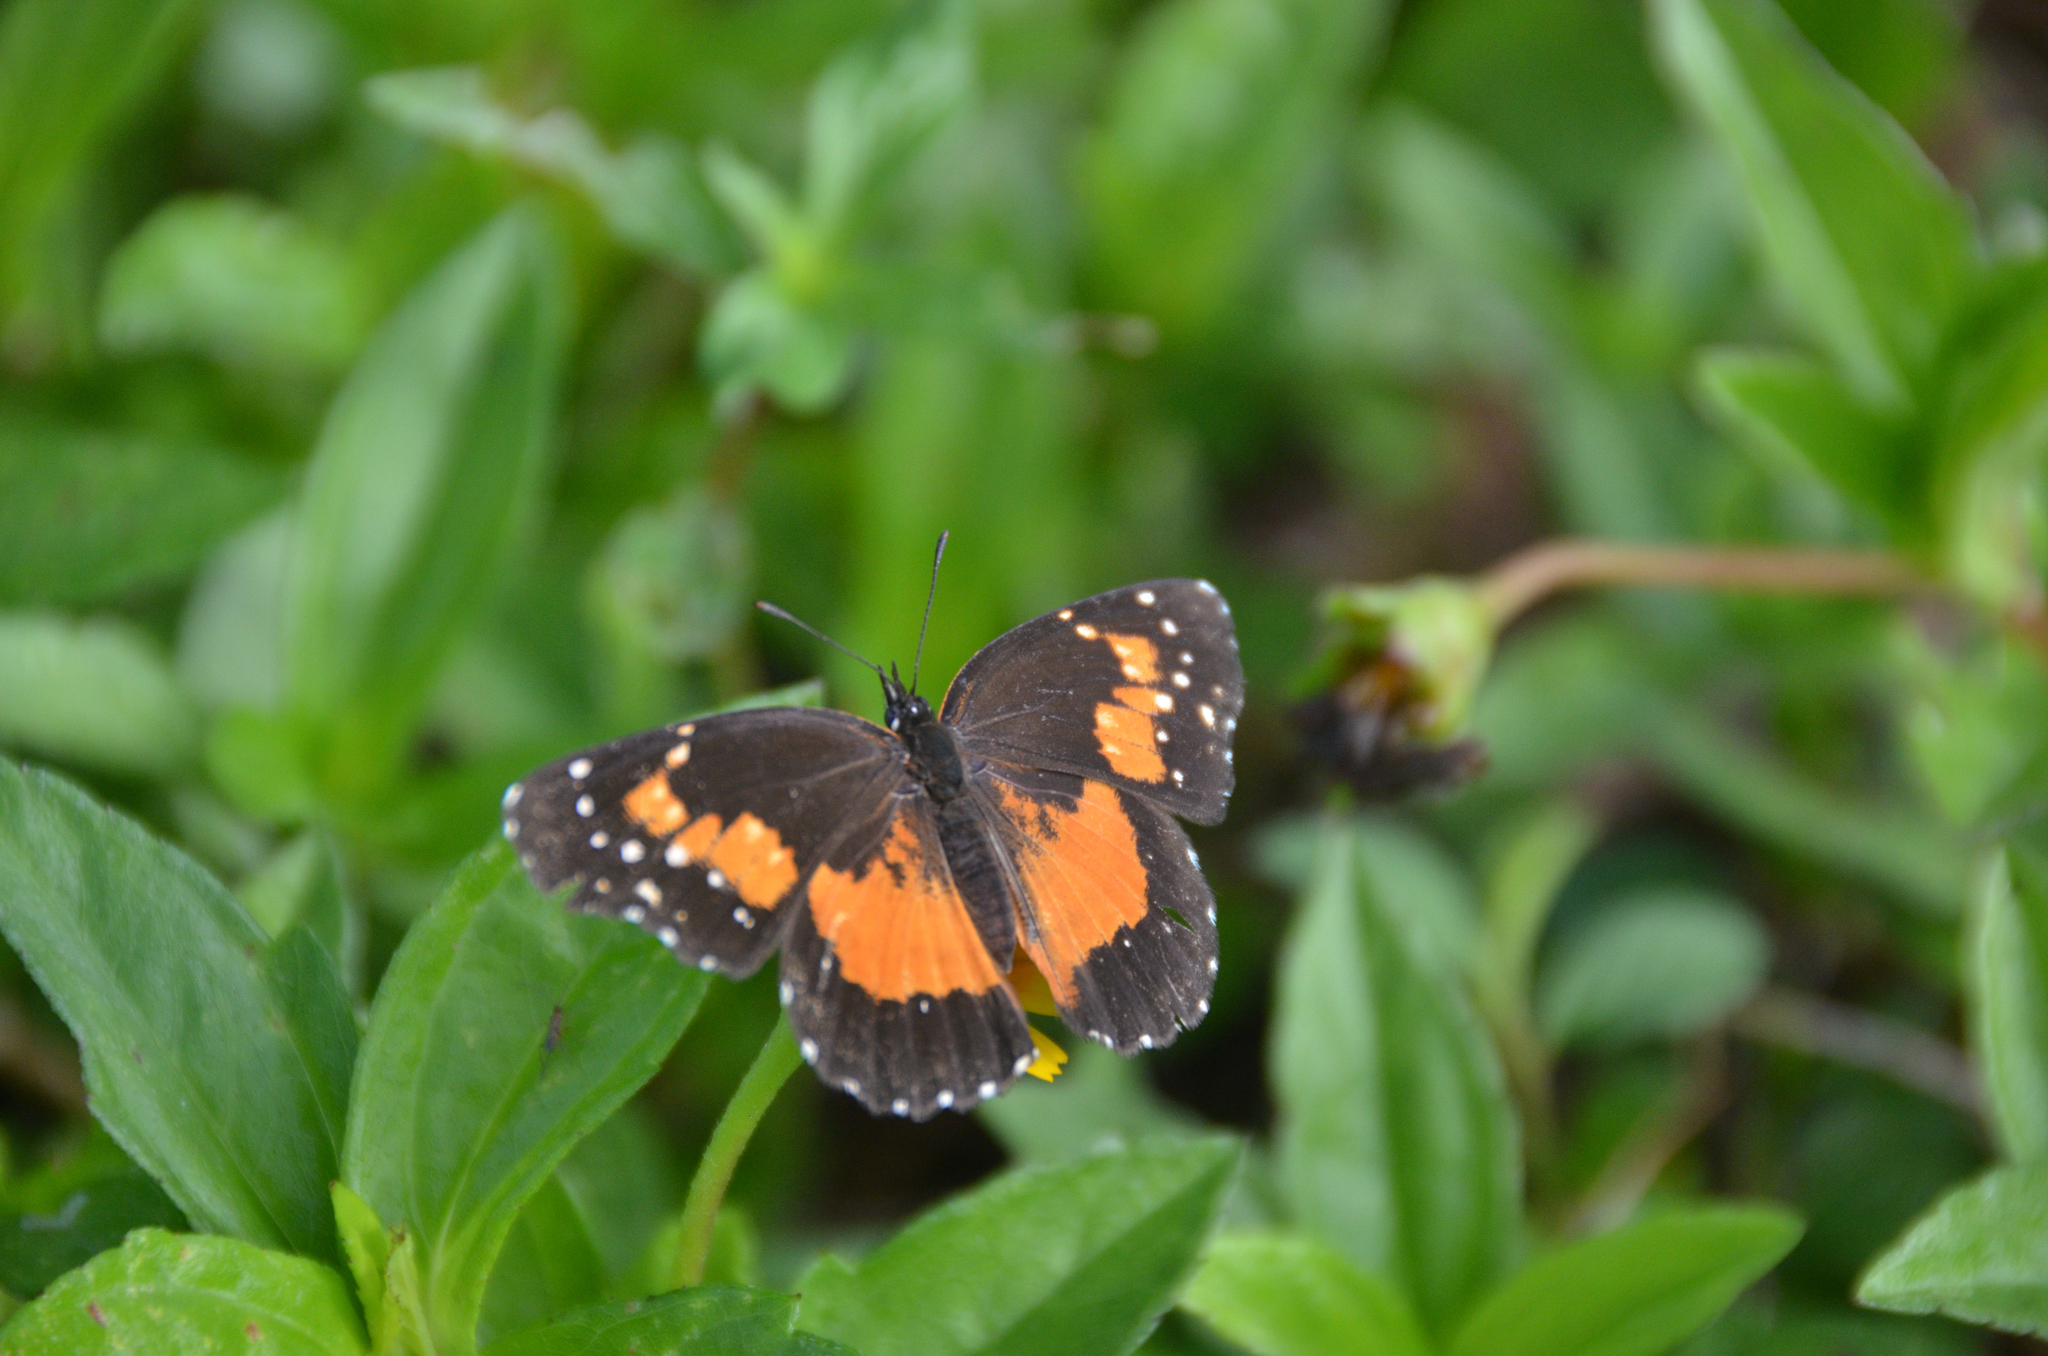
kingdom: Animalia
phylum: Arthropoda
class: Insecta
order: Lepidoptera
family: Nymphalidae
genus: Chlosyne
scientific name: Chlosyne lacinia
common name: Bordered patch
